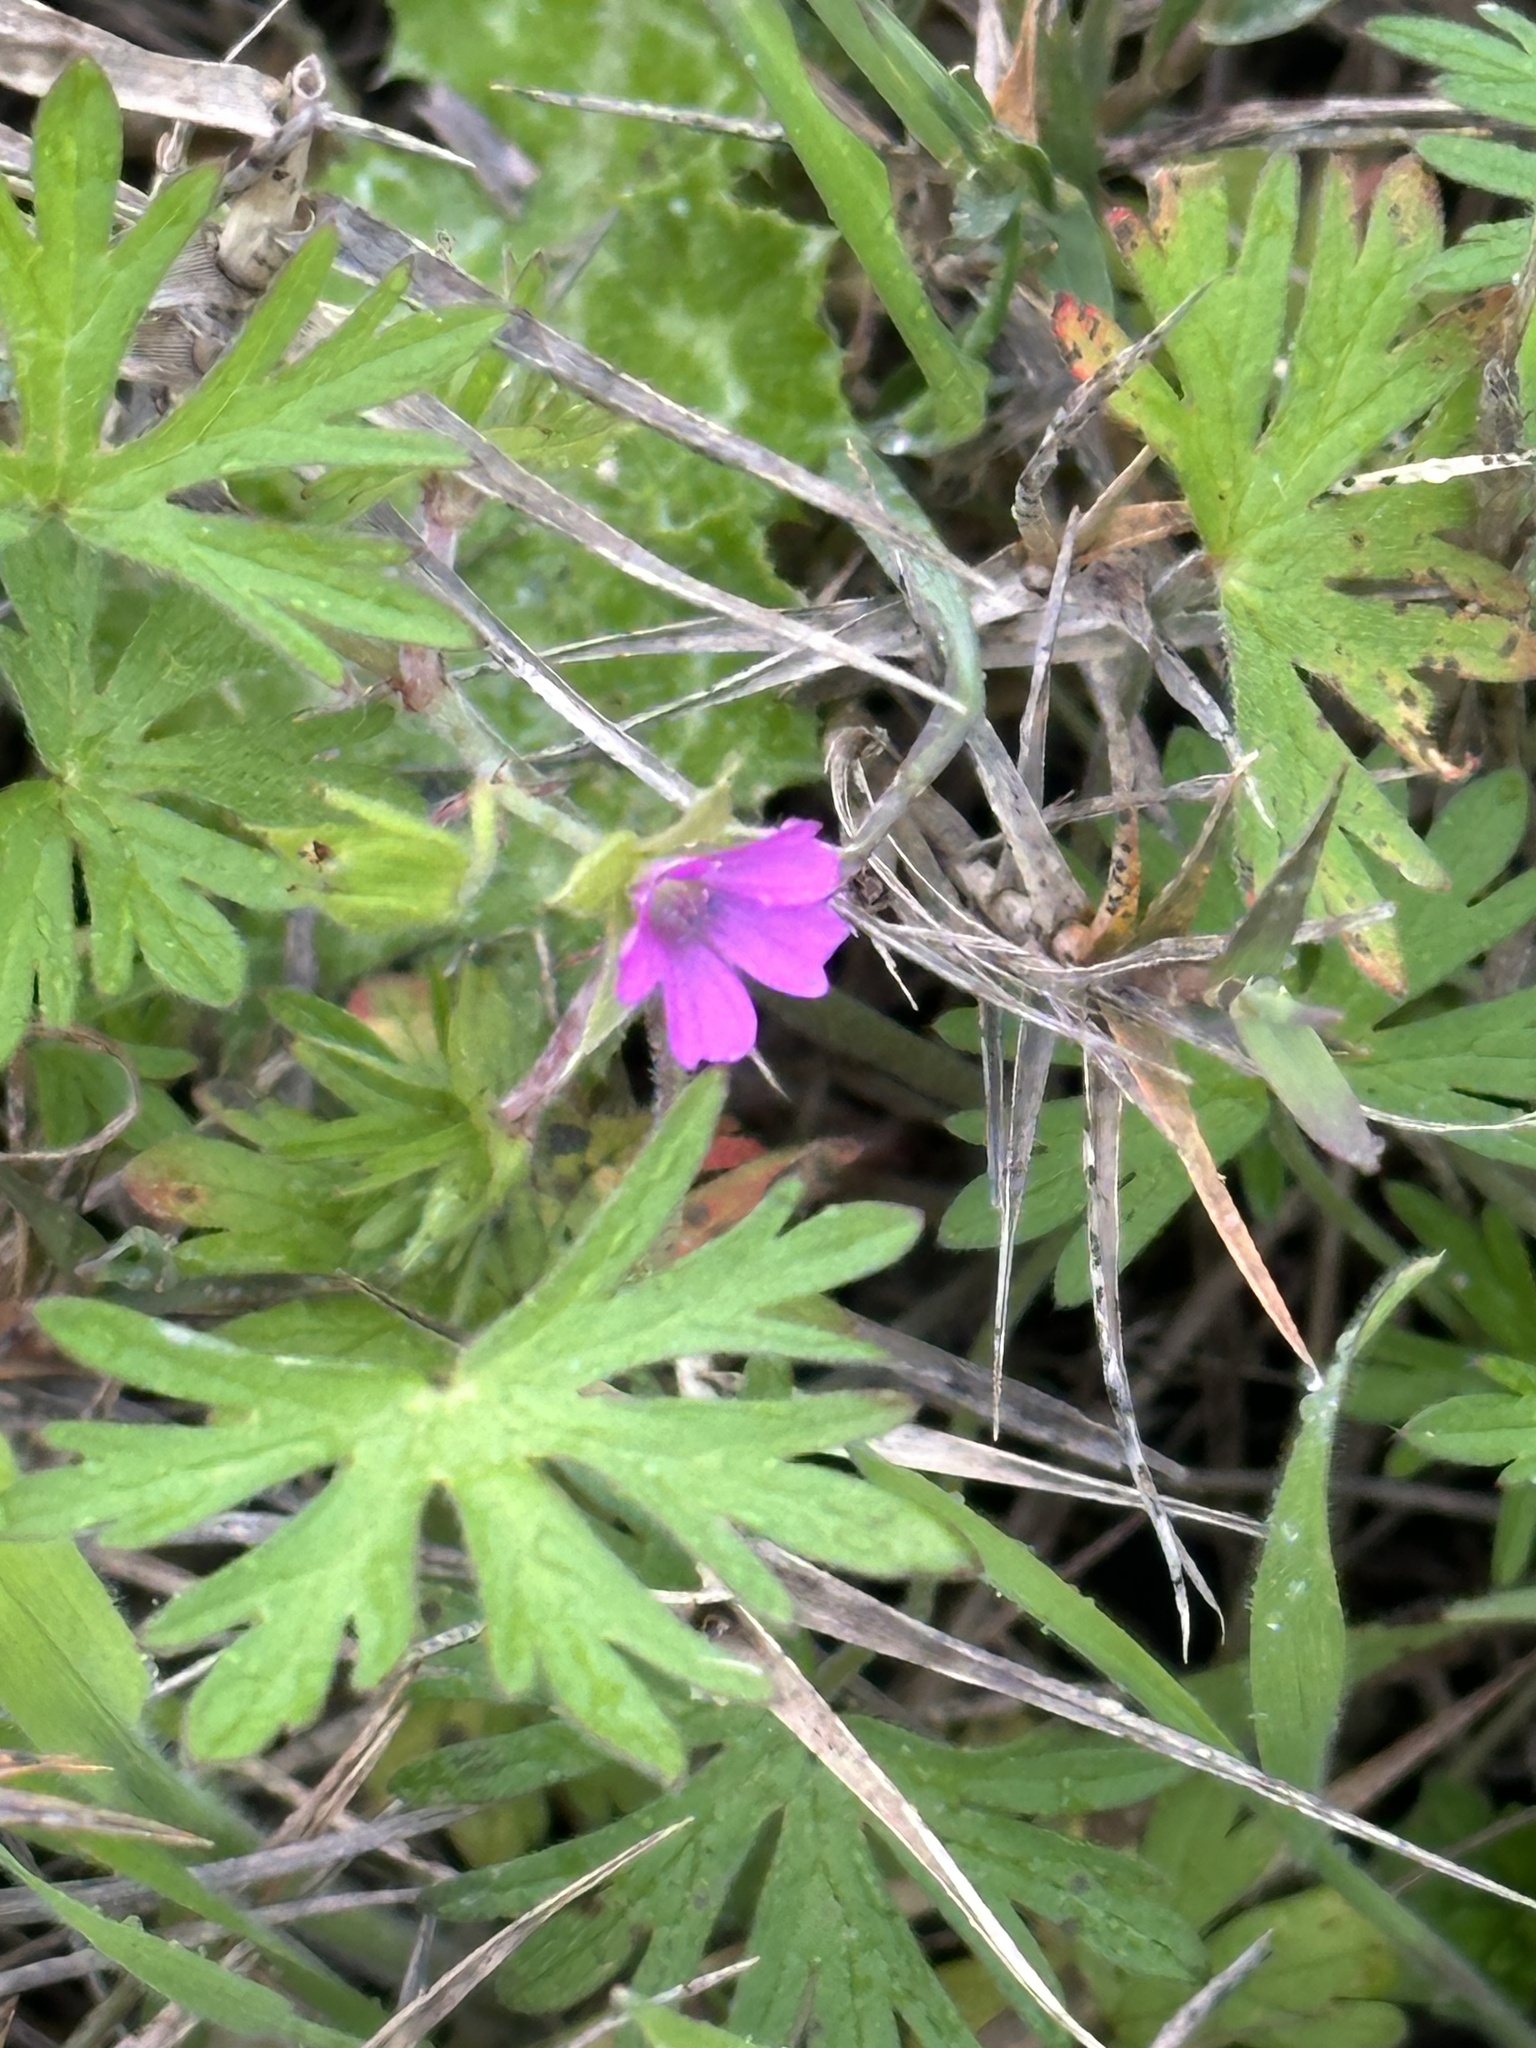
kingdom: Plantae
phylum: Tracheophyta
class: Magnoliopsida
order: Geraniales
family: Geraniaceae
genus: Geranium
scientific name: Geranium dissectum
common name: Cut-leaved crane's-bill
